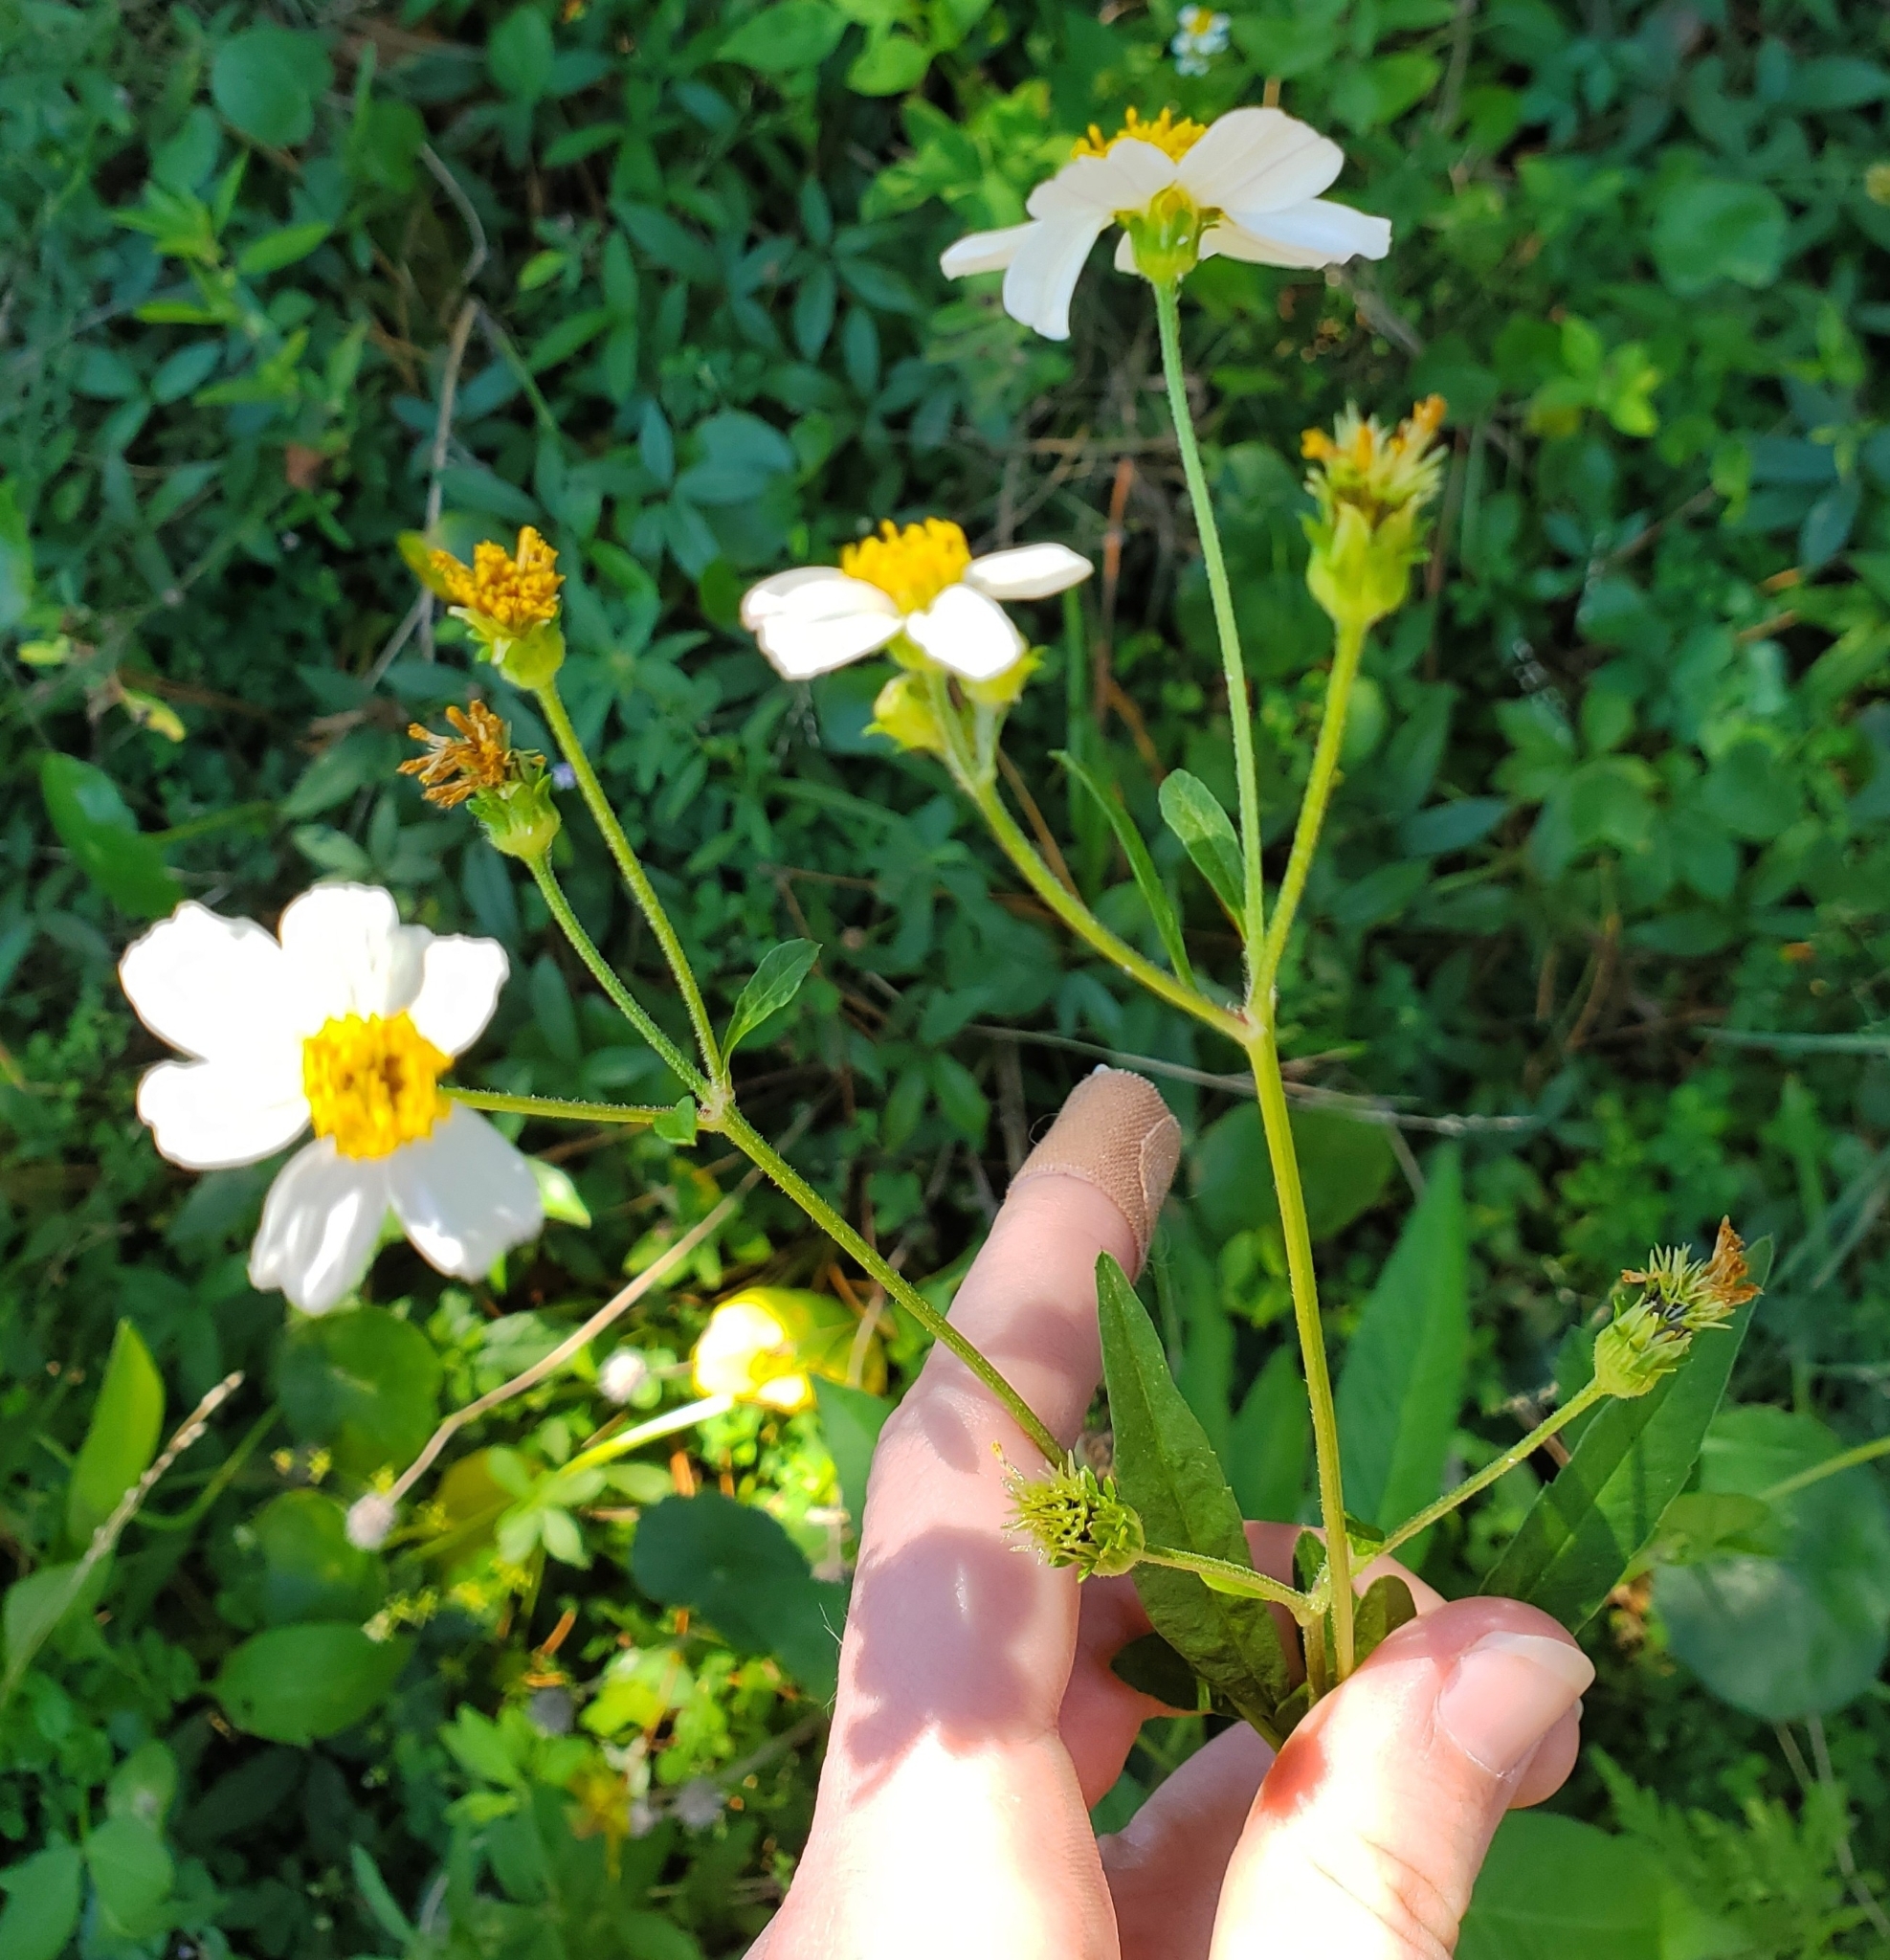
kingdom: Plantae
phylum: Tracheophyta
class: Magnoliopsida
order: Asterales
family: Asteraceae
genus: Bidens
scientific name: Bidens alba
